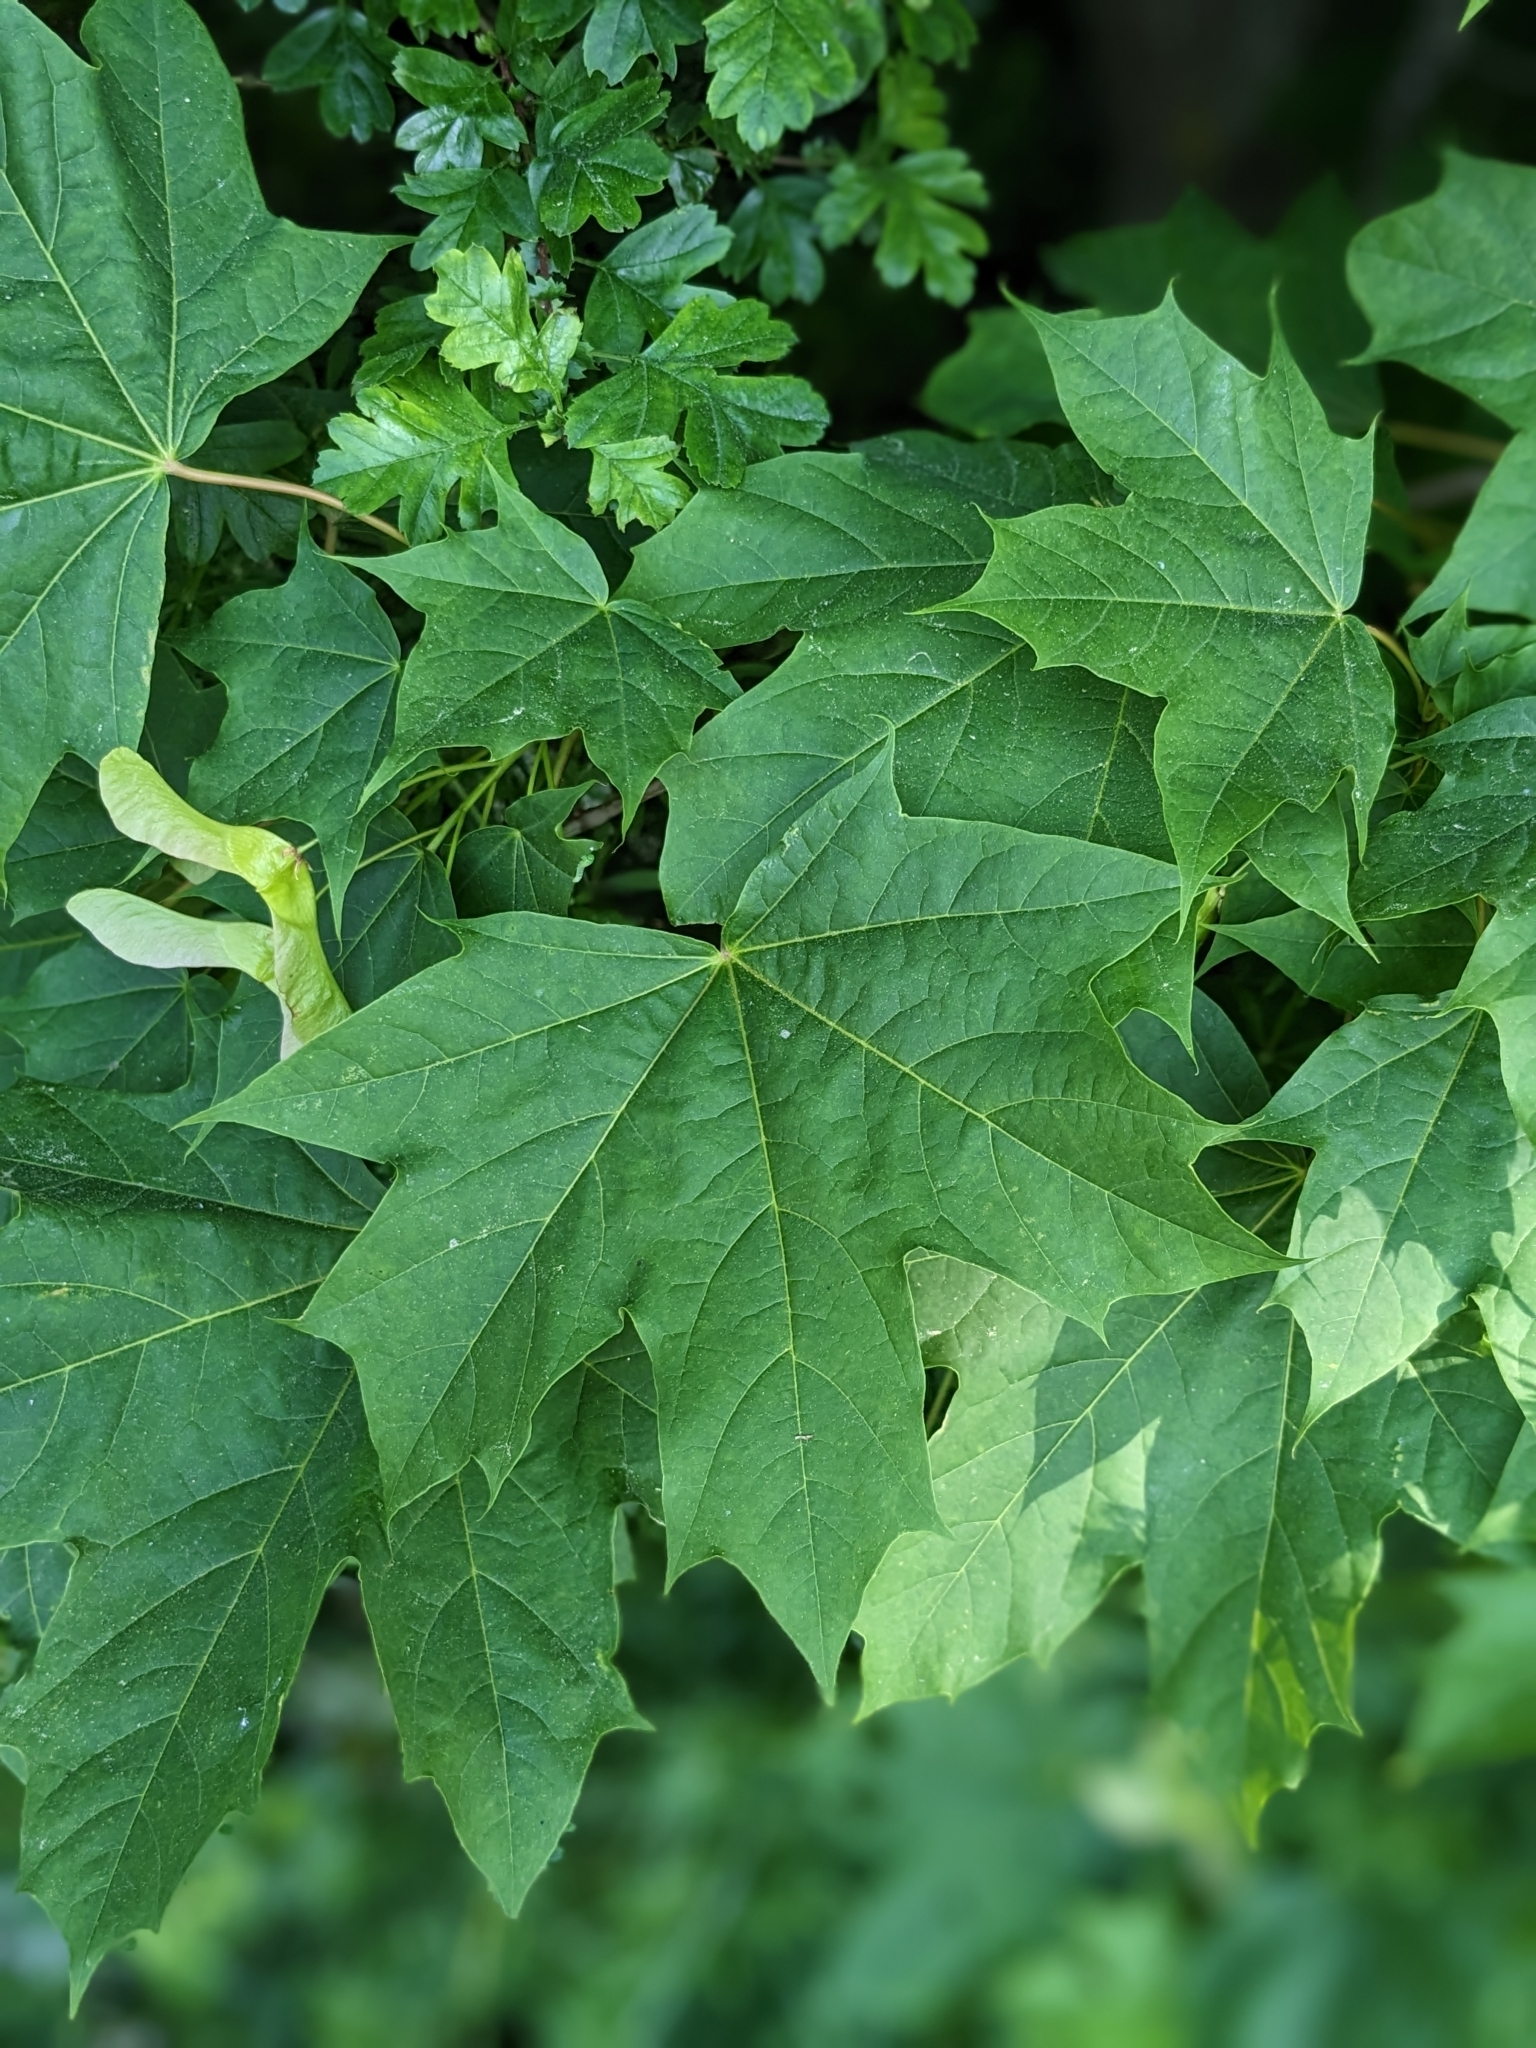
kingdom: Plantae
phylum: Tracheophyta
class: Magnoliopsida
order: Sapindales
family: Sapindaceae
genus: Acer
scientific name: Acer platanoides
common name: Norway maple
